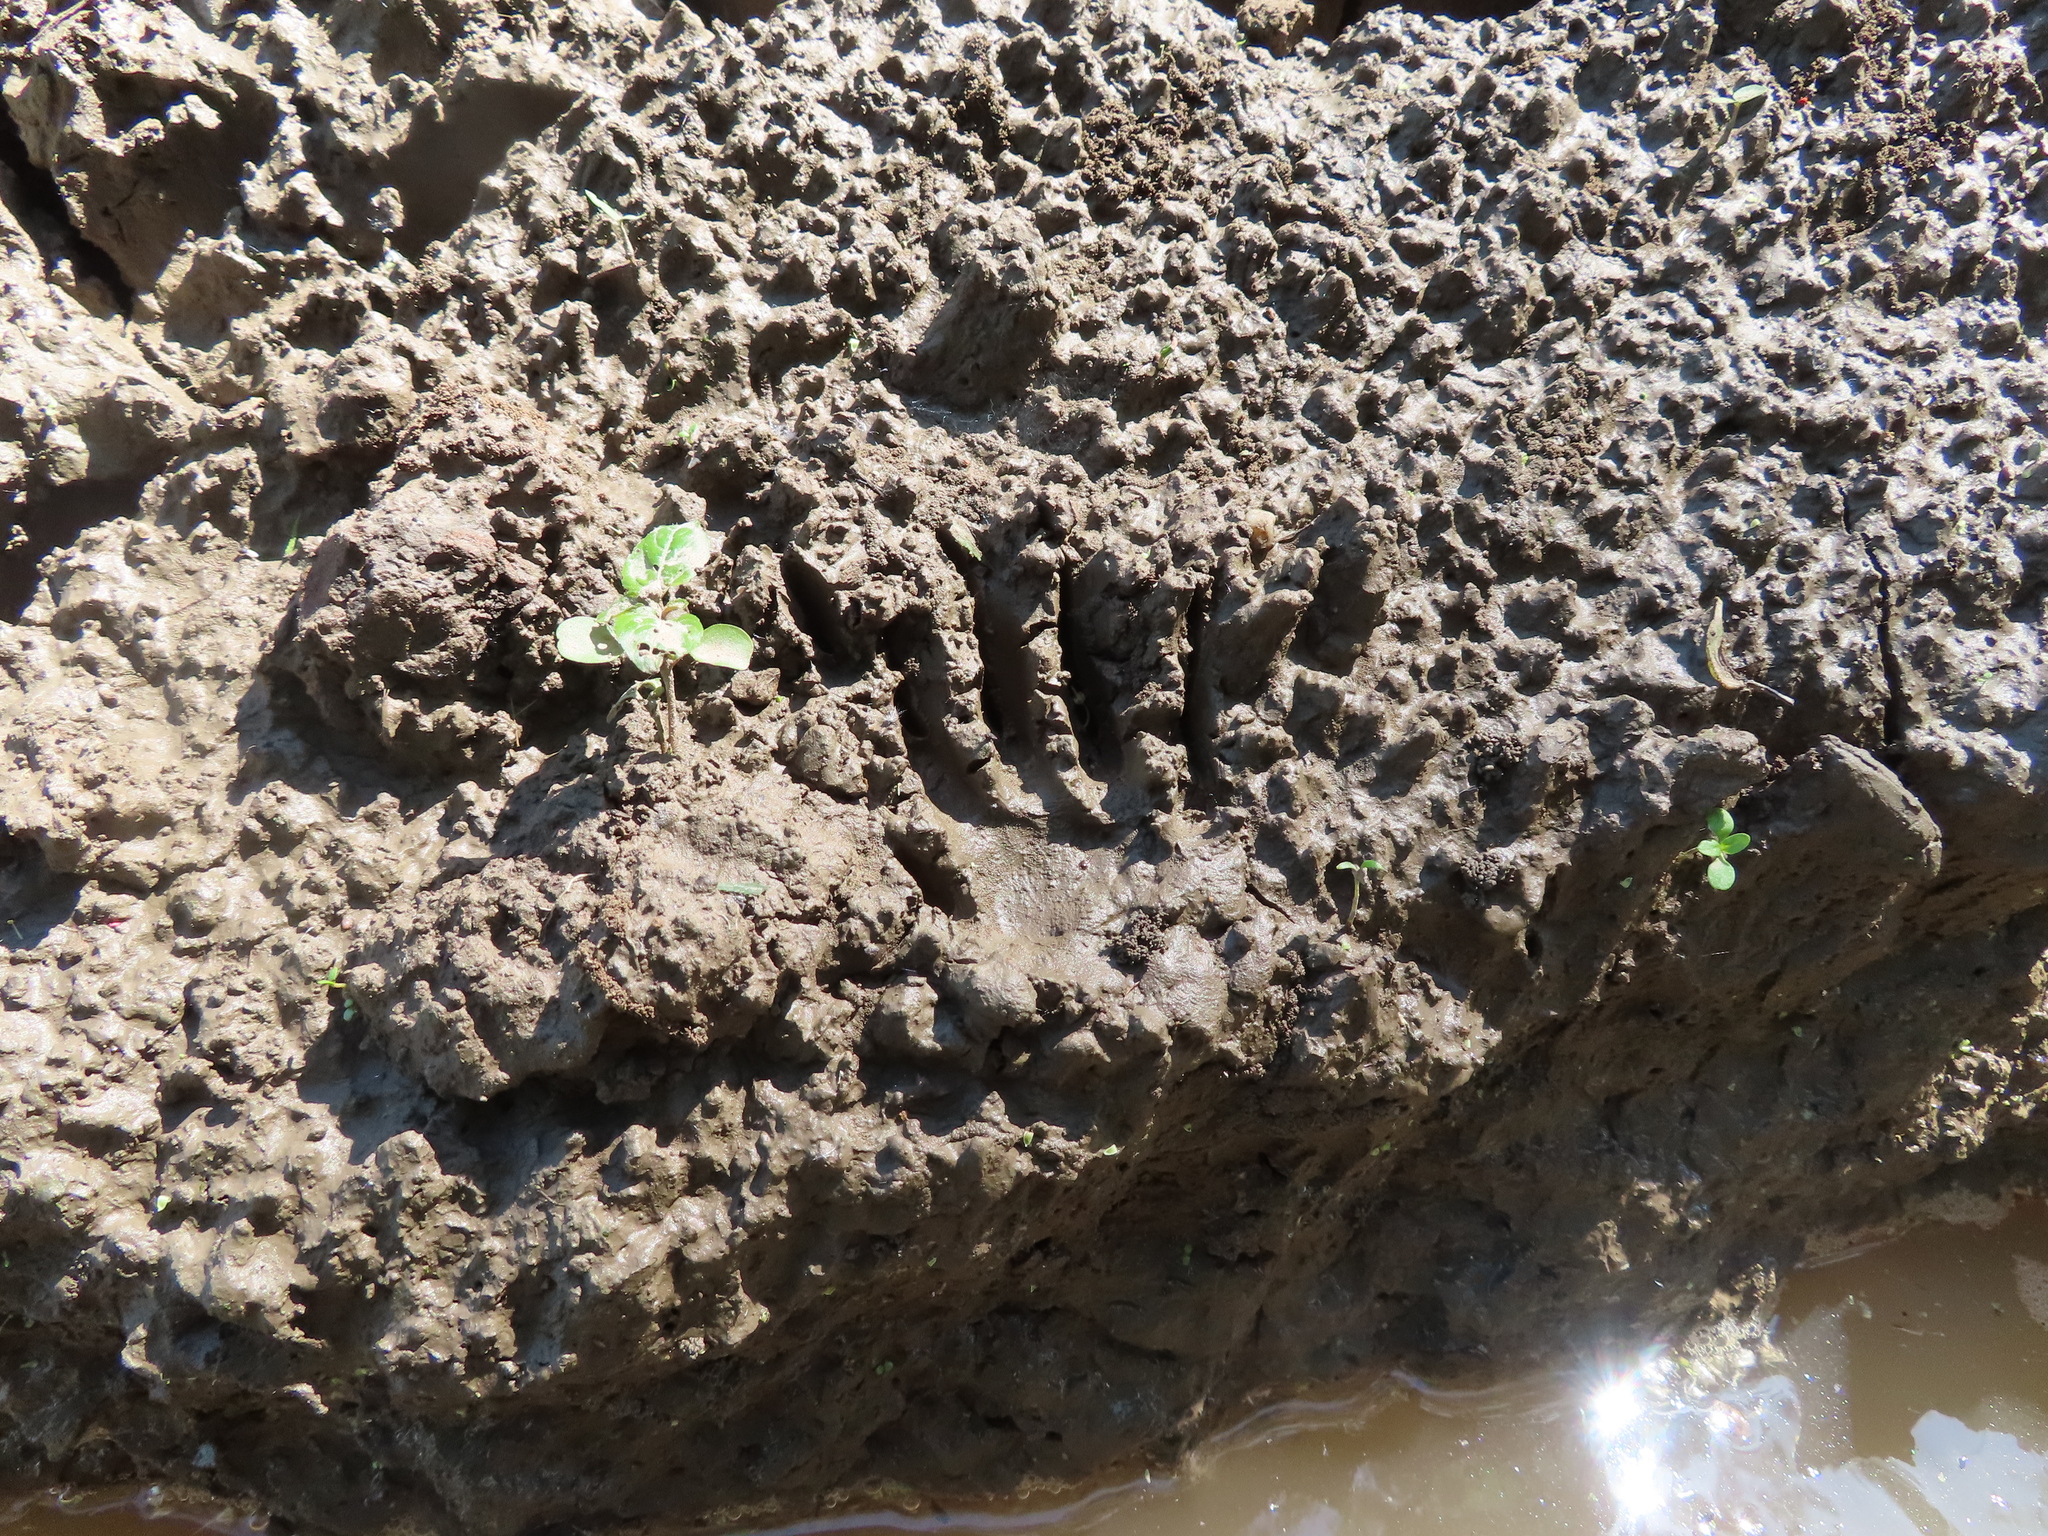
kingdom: Animalia
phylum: Chordata
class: Mammalia
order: Carnivora
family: Procyonidae
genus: Procyon
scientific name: Procyon lotor
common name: Raccoon
